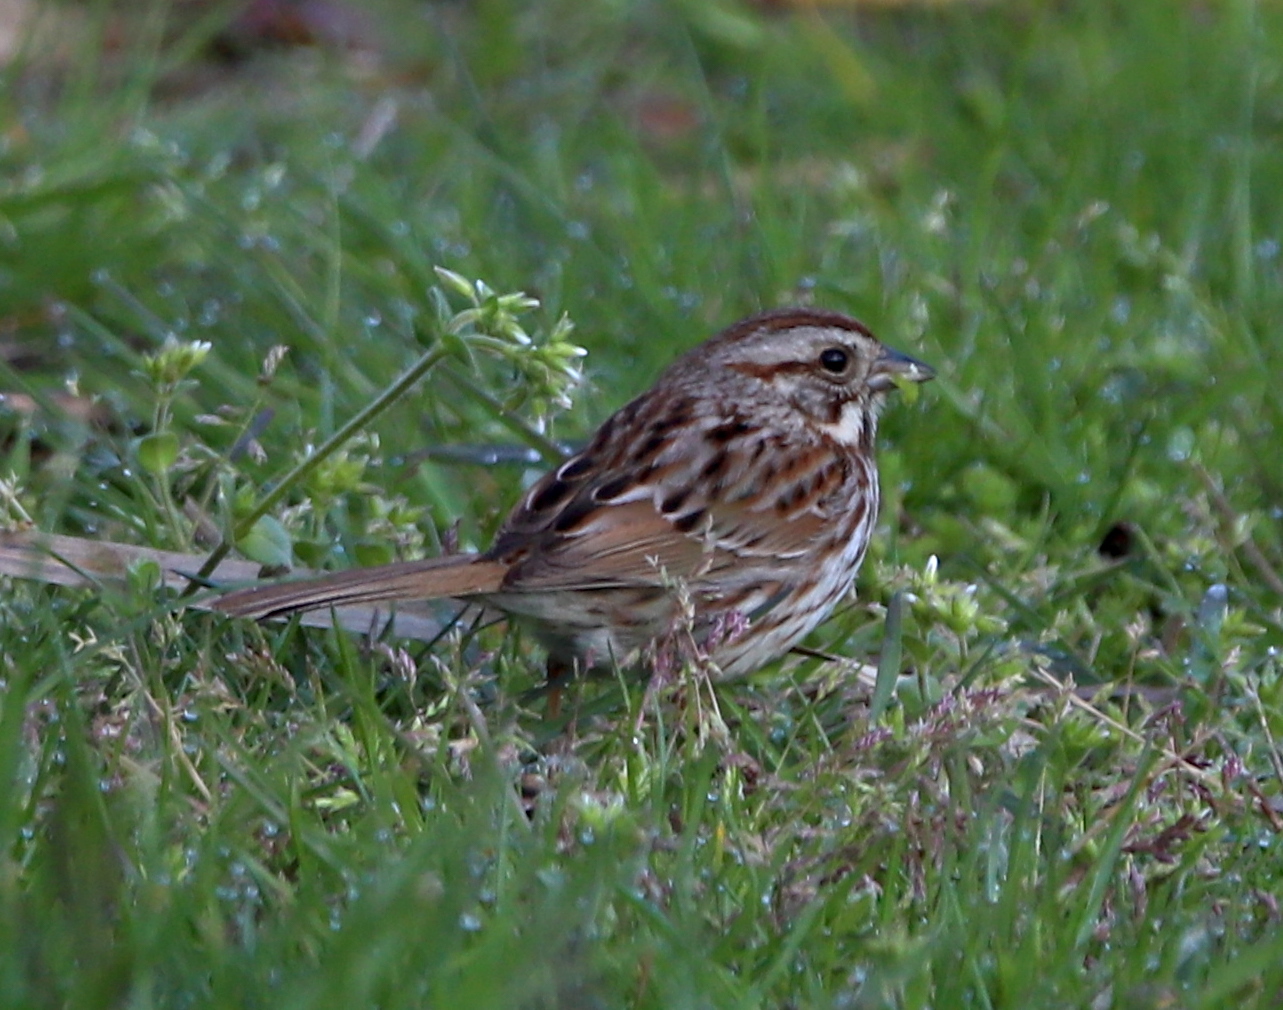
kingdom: Animalia
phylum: Chordata
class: Aves
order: Passeriformes
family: Passerellidae
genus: Melospiza
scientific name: Melospiza melodia
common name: Song sparrow
